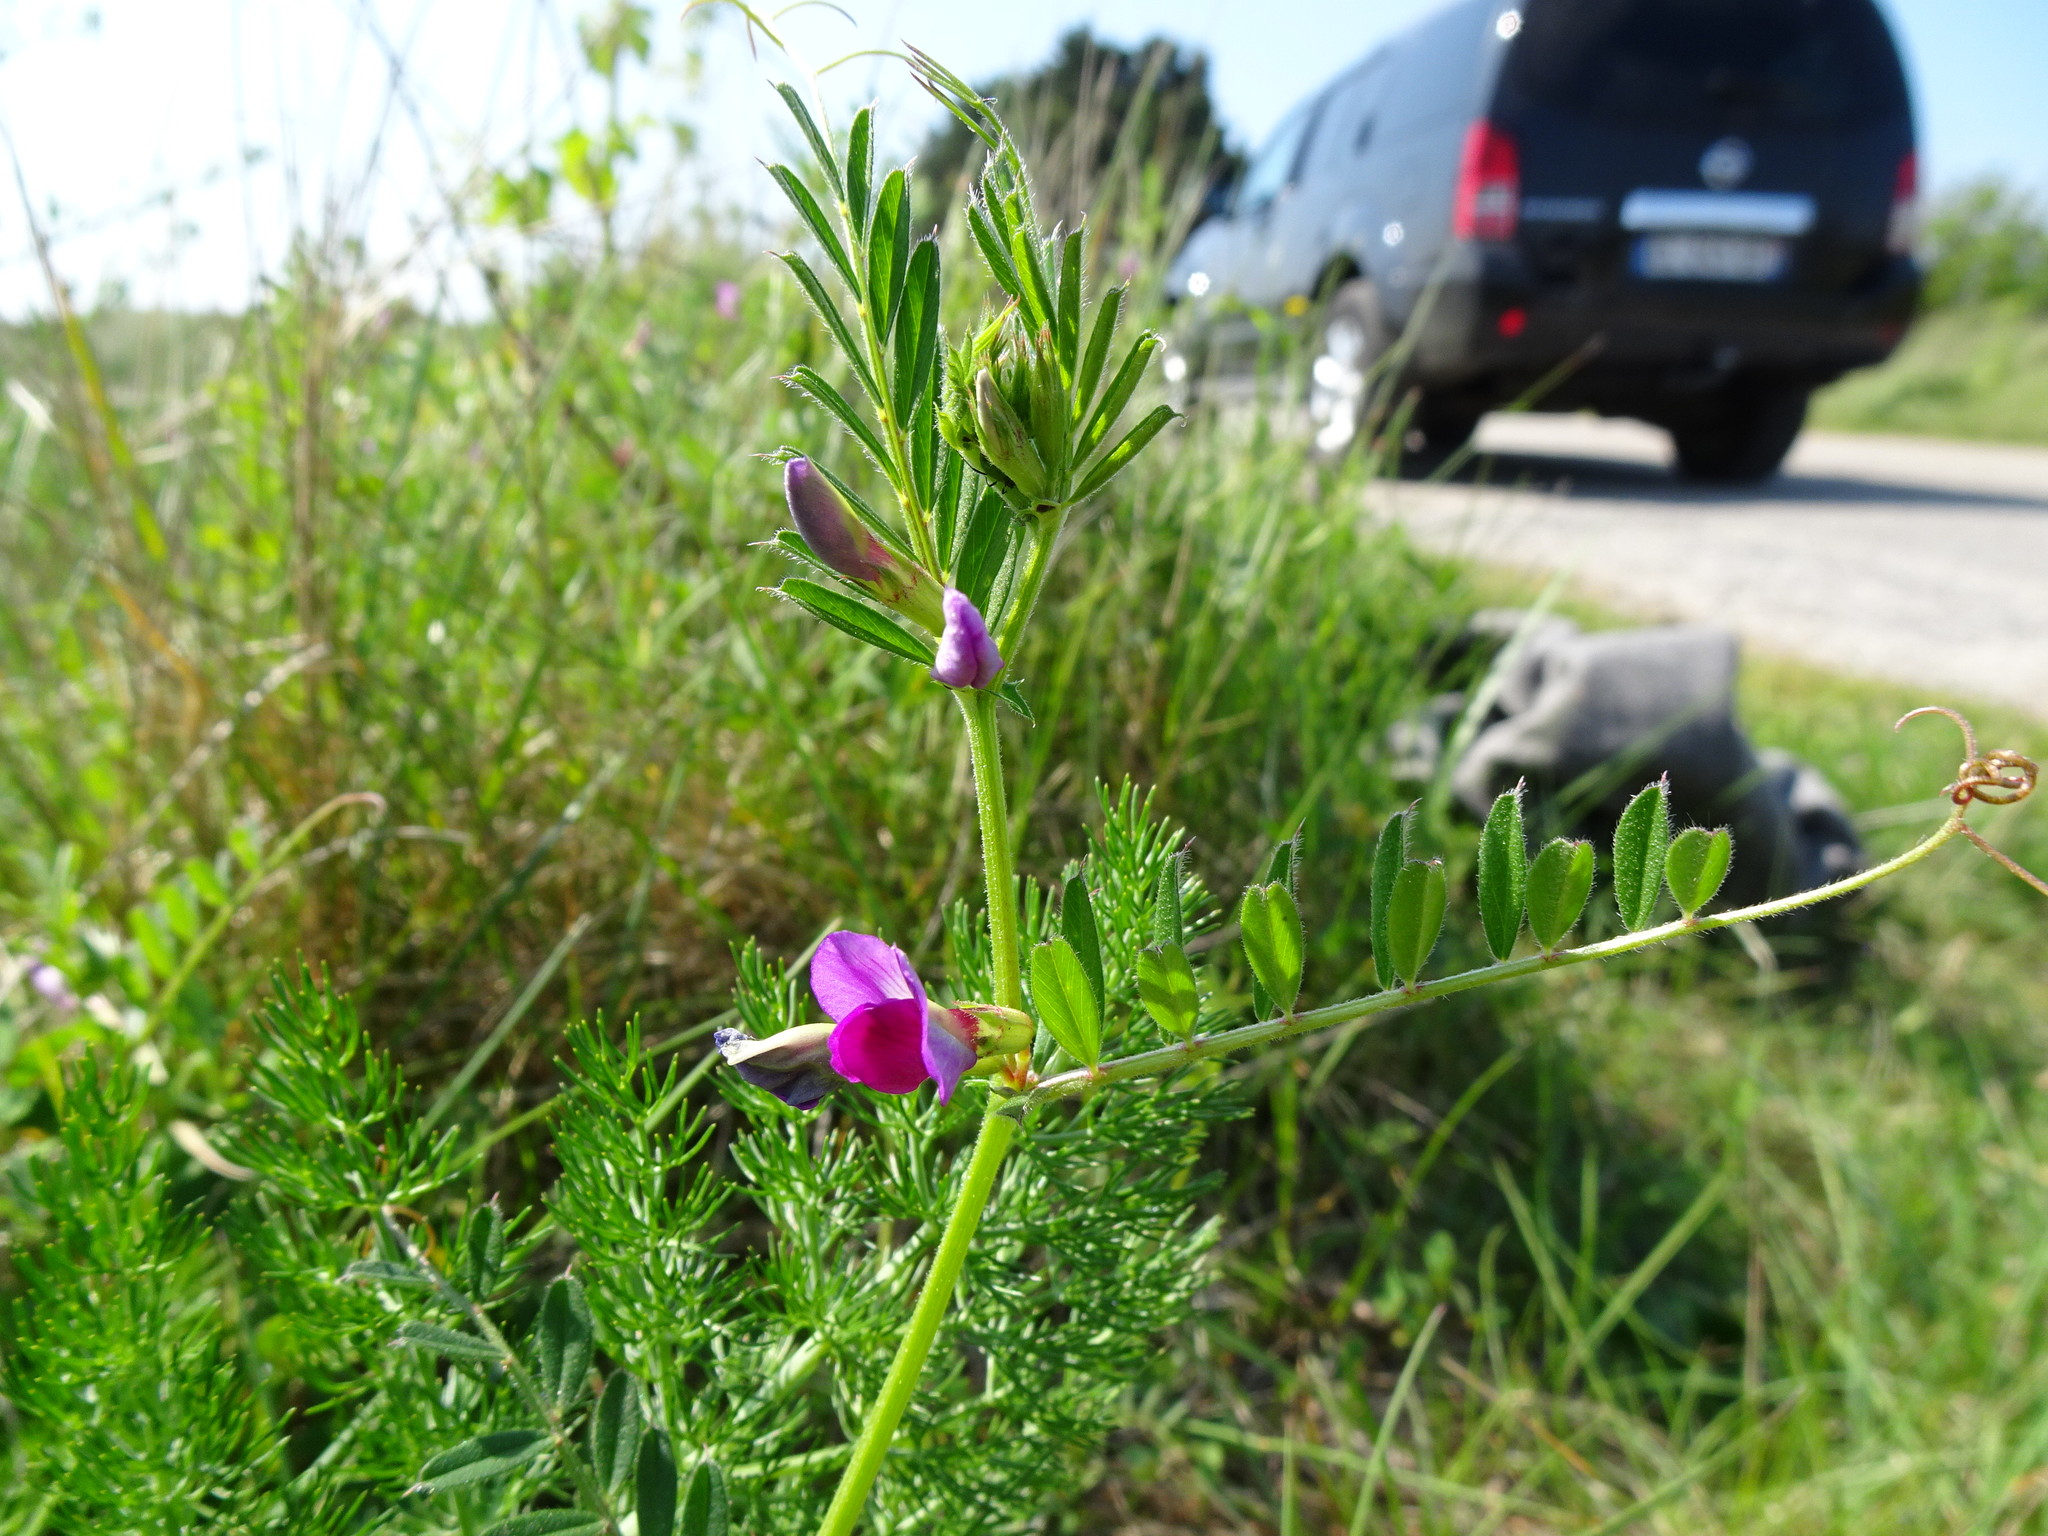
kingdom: Plantae
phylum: Tracheophyta
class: Magnoliopsida
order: Fabales
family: Fabaceae
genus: Vicia
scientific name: Vicia sativa
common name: Garden vetch
